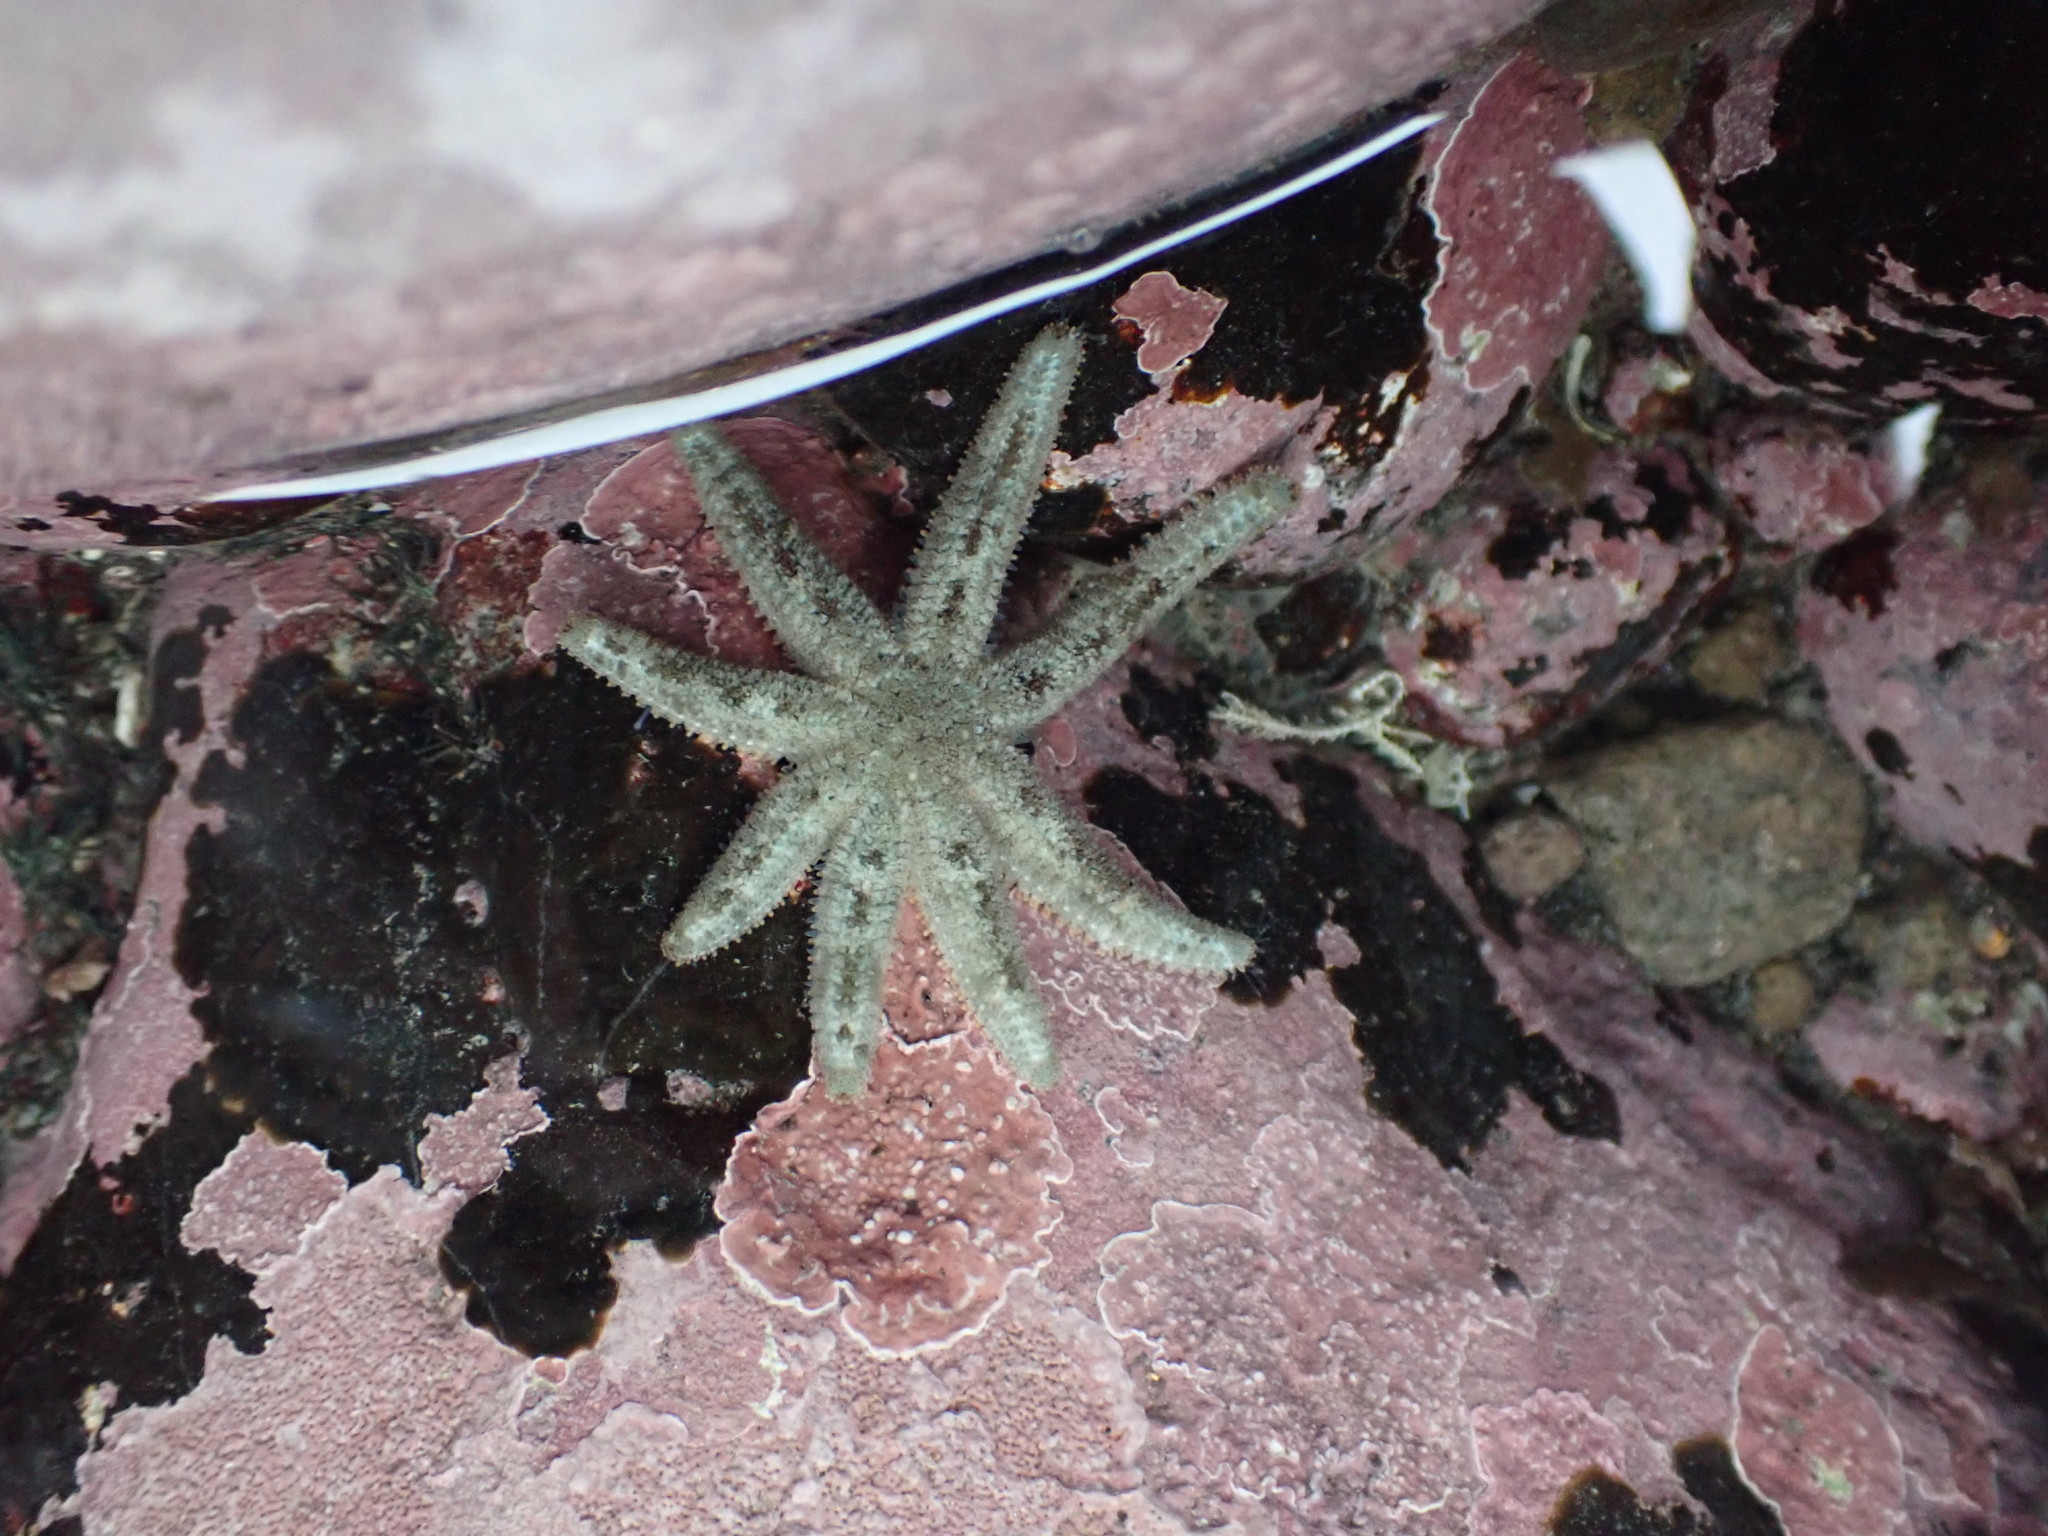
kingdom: Animalia
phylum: Echinodermata
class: Asteroidea
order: Forcipulatida
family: Stichasteridae
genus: Allostichaster
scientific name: Allostichaster polyplax
